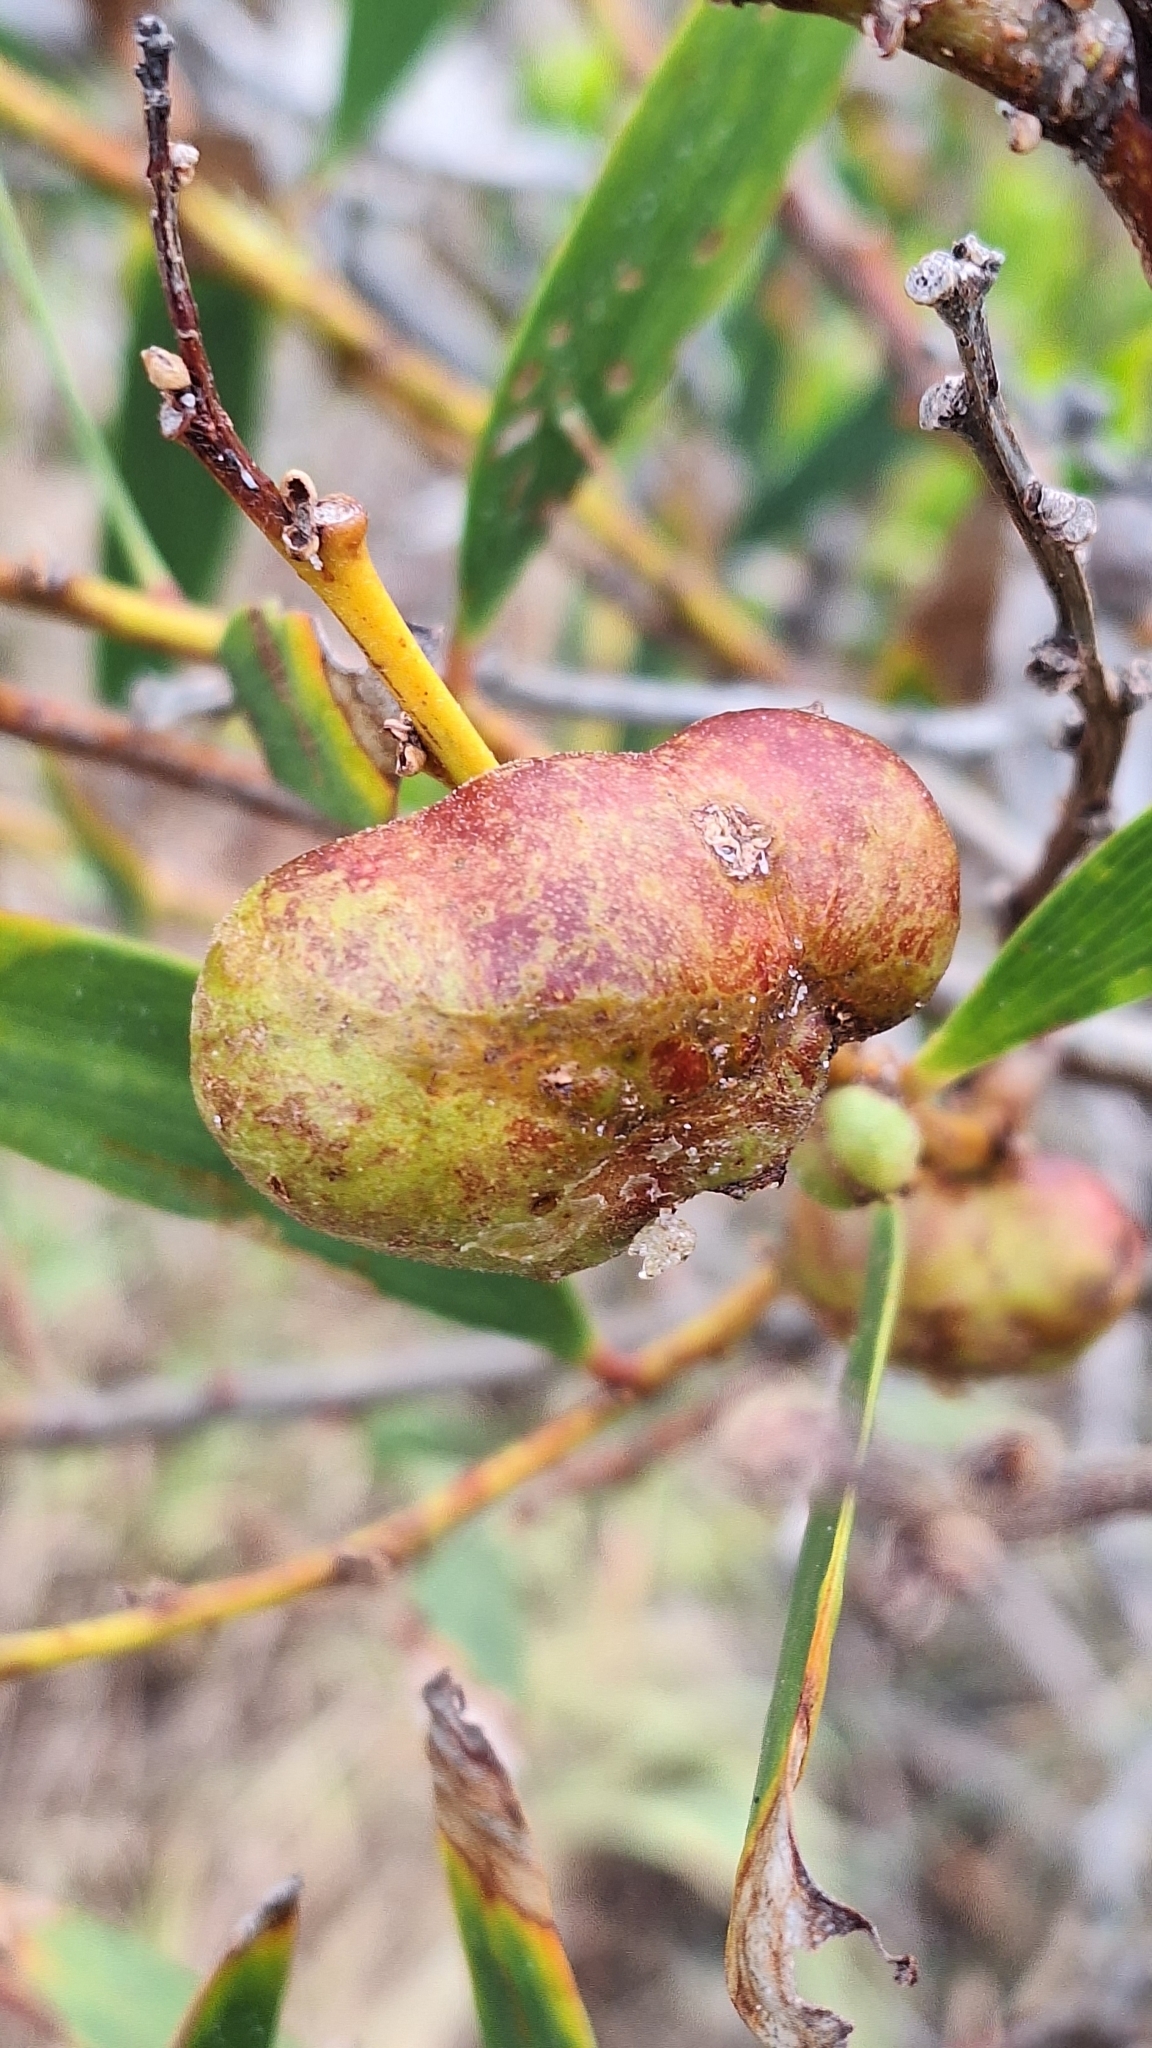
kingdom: Animalia
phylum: Arthropoda
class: Insecta
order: Hymenoptera
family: Pteromalidae
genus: Trichilogaster
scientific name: Trichilogaster acaciaelongifoliae
